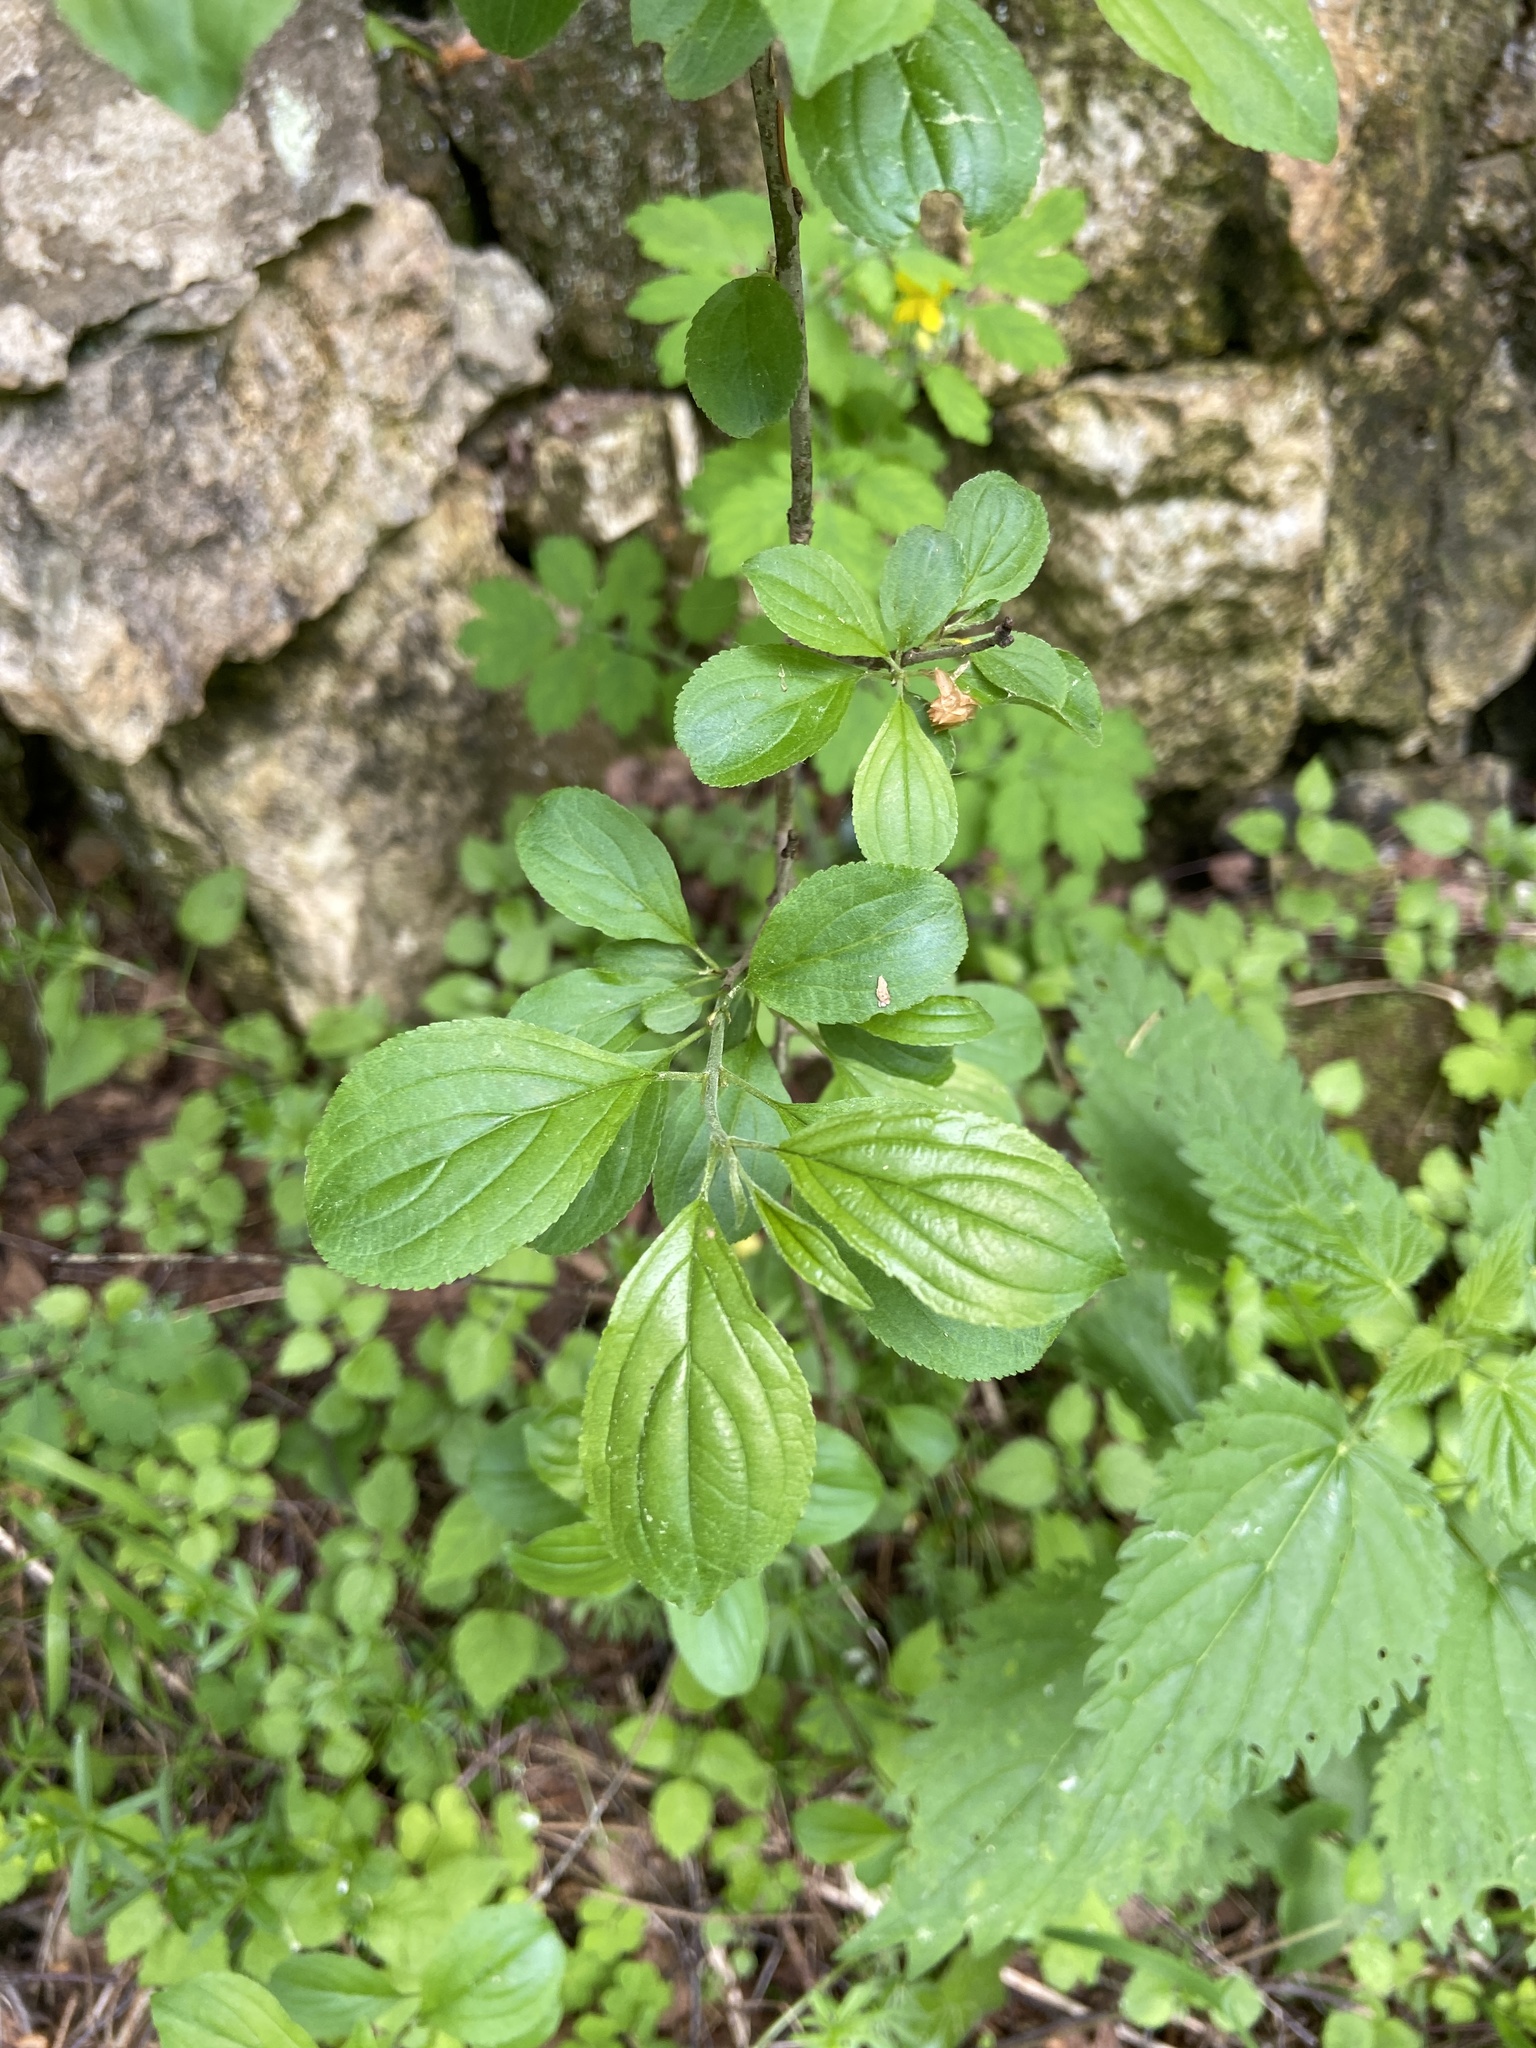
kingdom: Plantae
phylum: Tracheophyta
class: Magnoliopsida
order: Rosales
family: Rhamnaceae
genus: Rhamnus
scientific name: Rhamnus cathartica
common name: Common buckthorn
